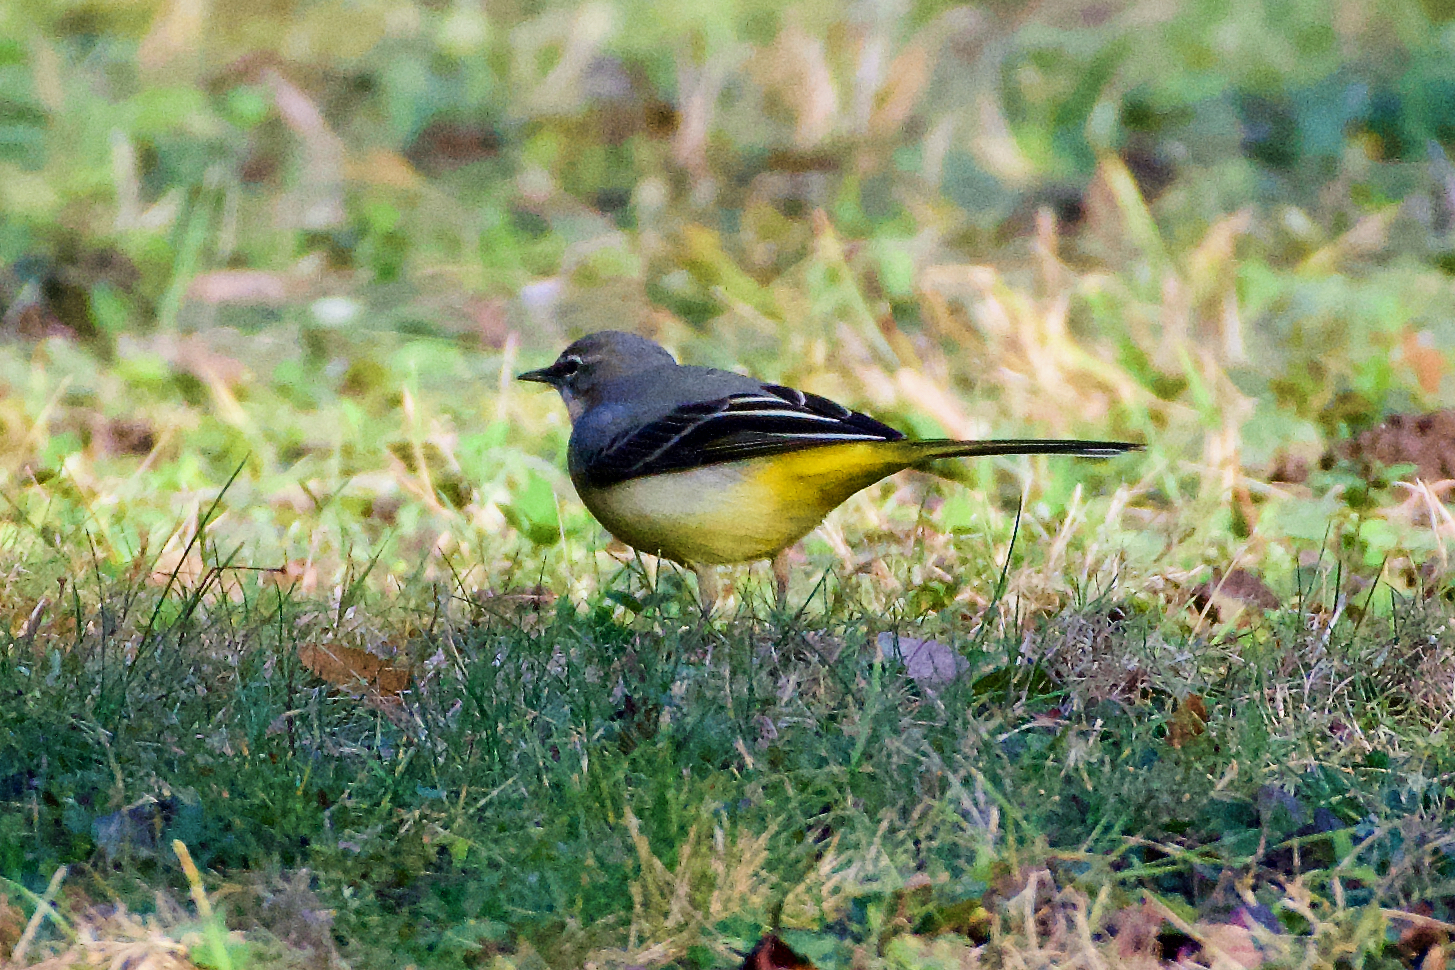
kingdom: Animalia
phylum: Chordata
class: Aves
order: Passeriformes
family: Motacillidae
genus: Motacilla
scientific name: Motacilla cinerea
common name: Grey wagtail
